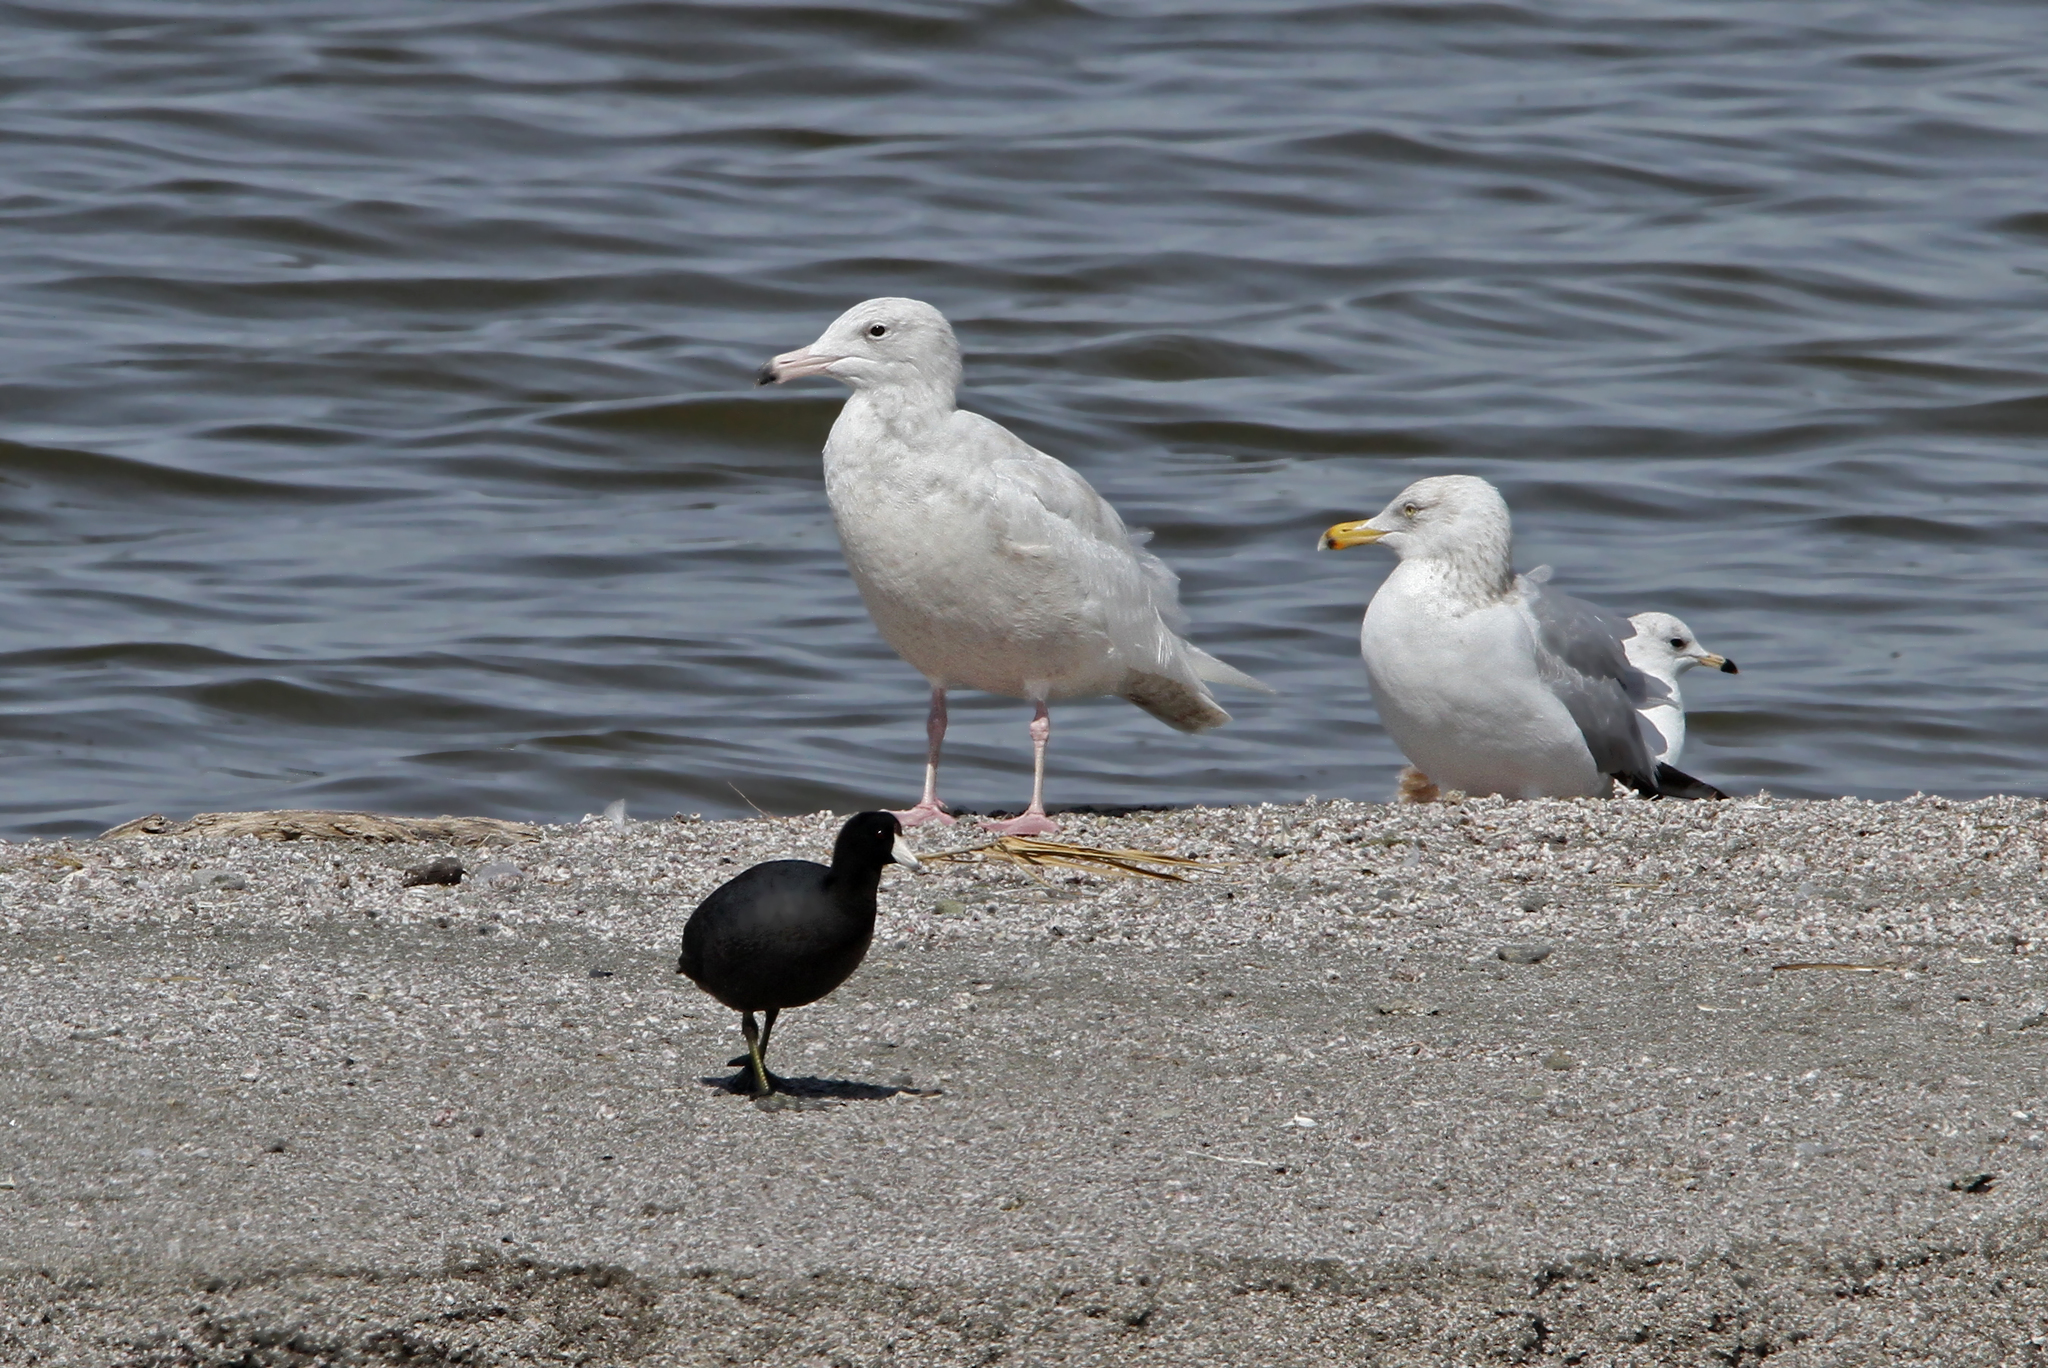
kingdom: Animalia
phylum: Chordata
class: Aves
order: Charadriiformes
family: Laridae
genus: Larus
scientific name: Larus hyperboreus
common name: Glaucous gull
